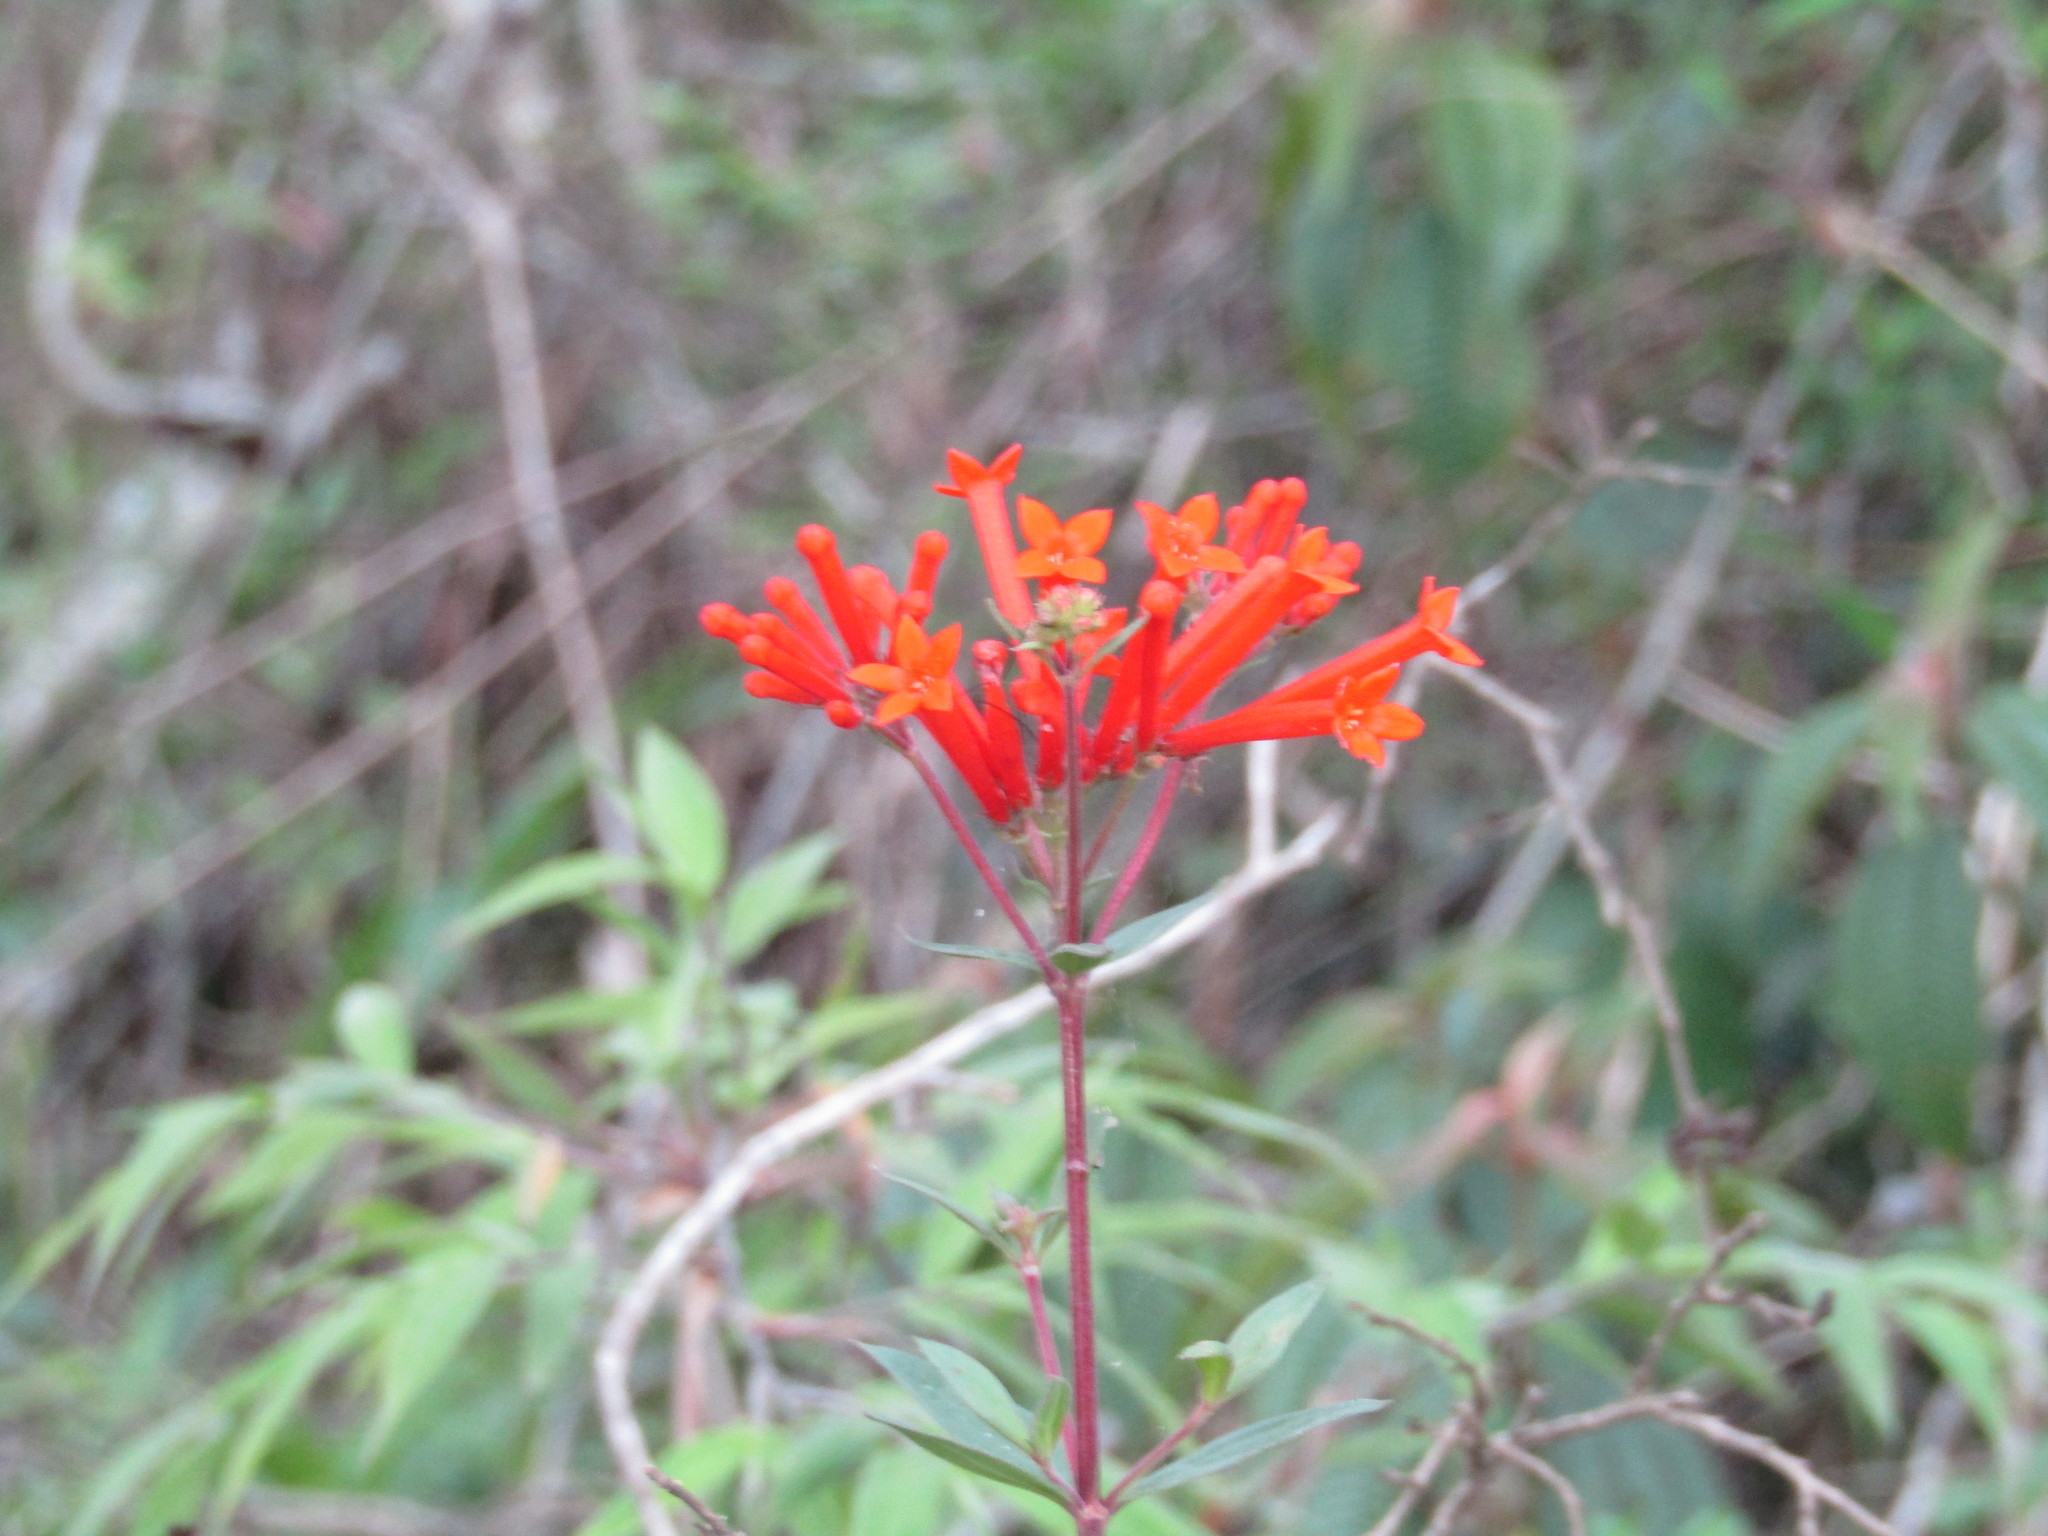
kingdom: Plantae
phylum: Tracheophyta
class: Magnoliopsida
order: Gentianales
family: Rubiaceae
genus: Bouvardia
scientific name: Bouvardia ternifolia
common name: Scarlet bouvardia
